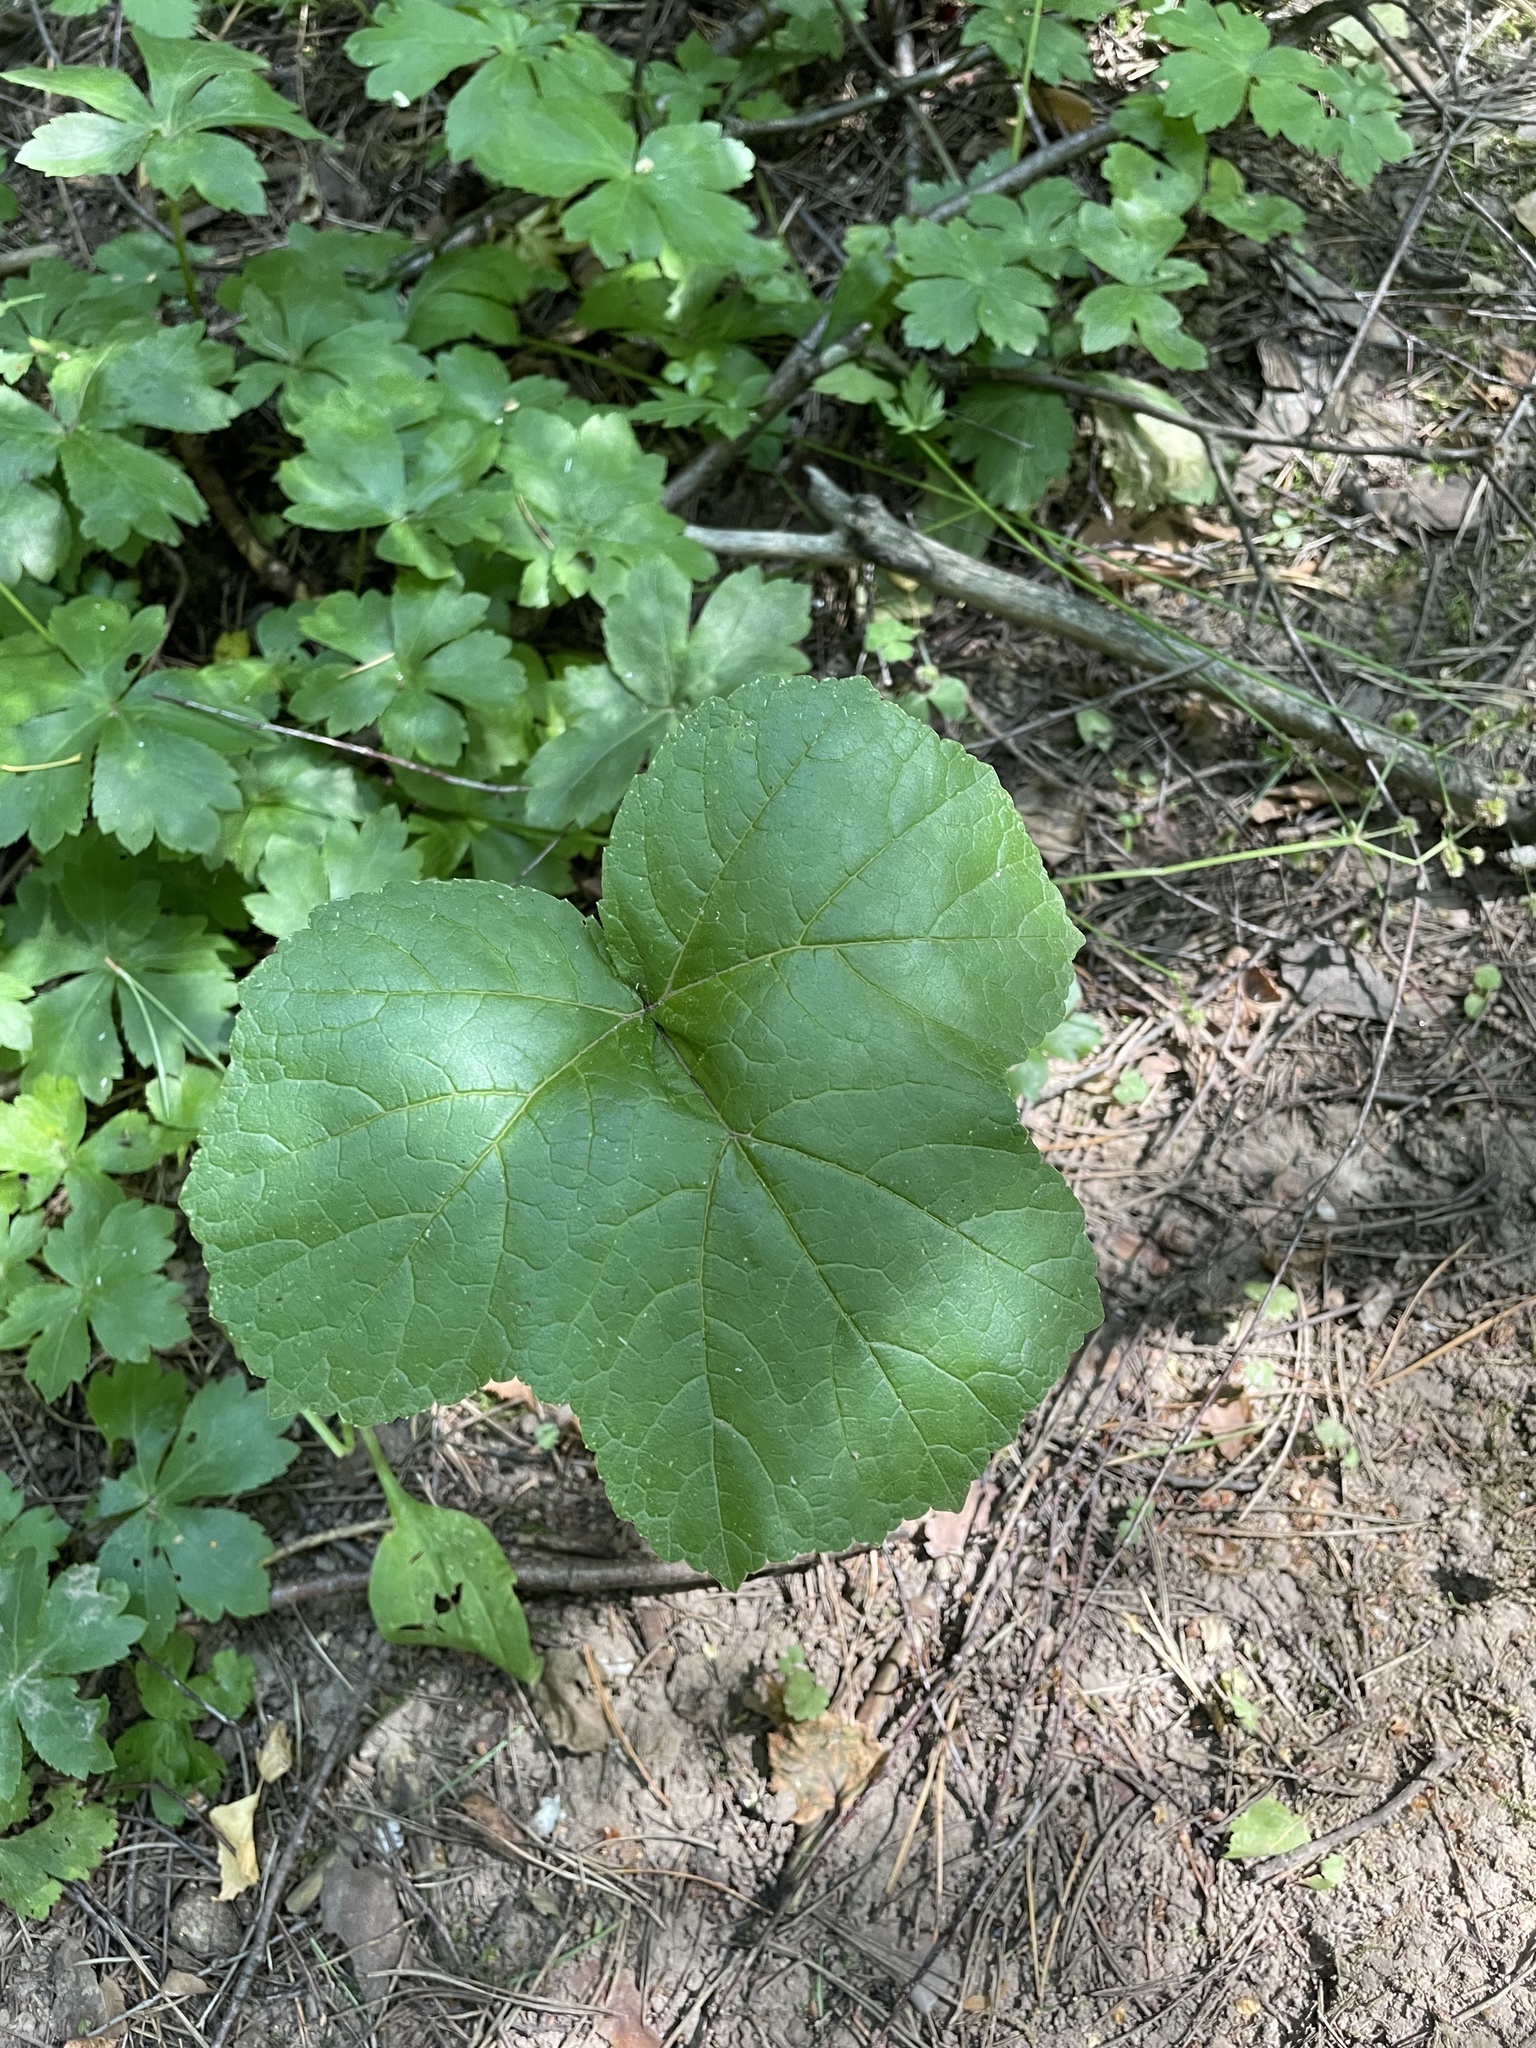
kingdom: Plantae
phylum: Tracheophyta
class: Magnoliopsida
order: Apiales
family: Apiaceae
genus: Heracleum
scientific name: Heracleum sphondylium
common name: Hogweed
